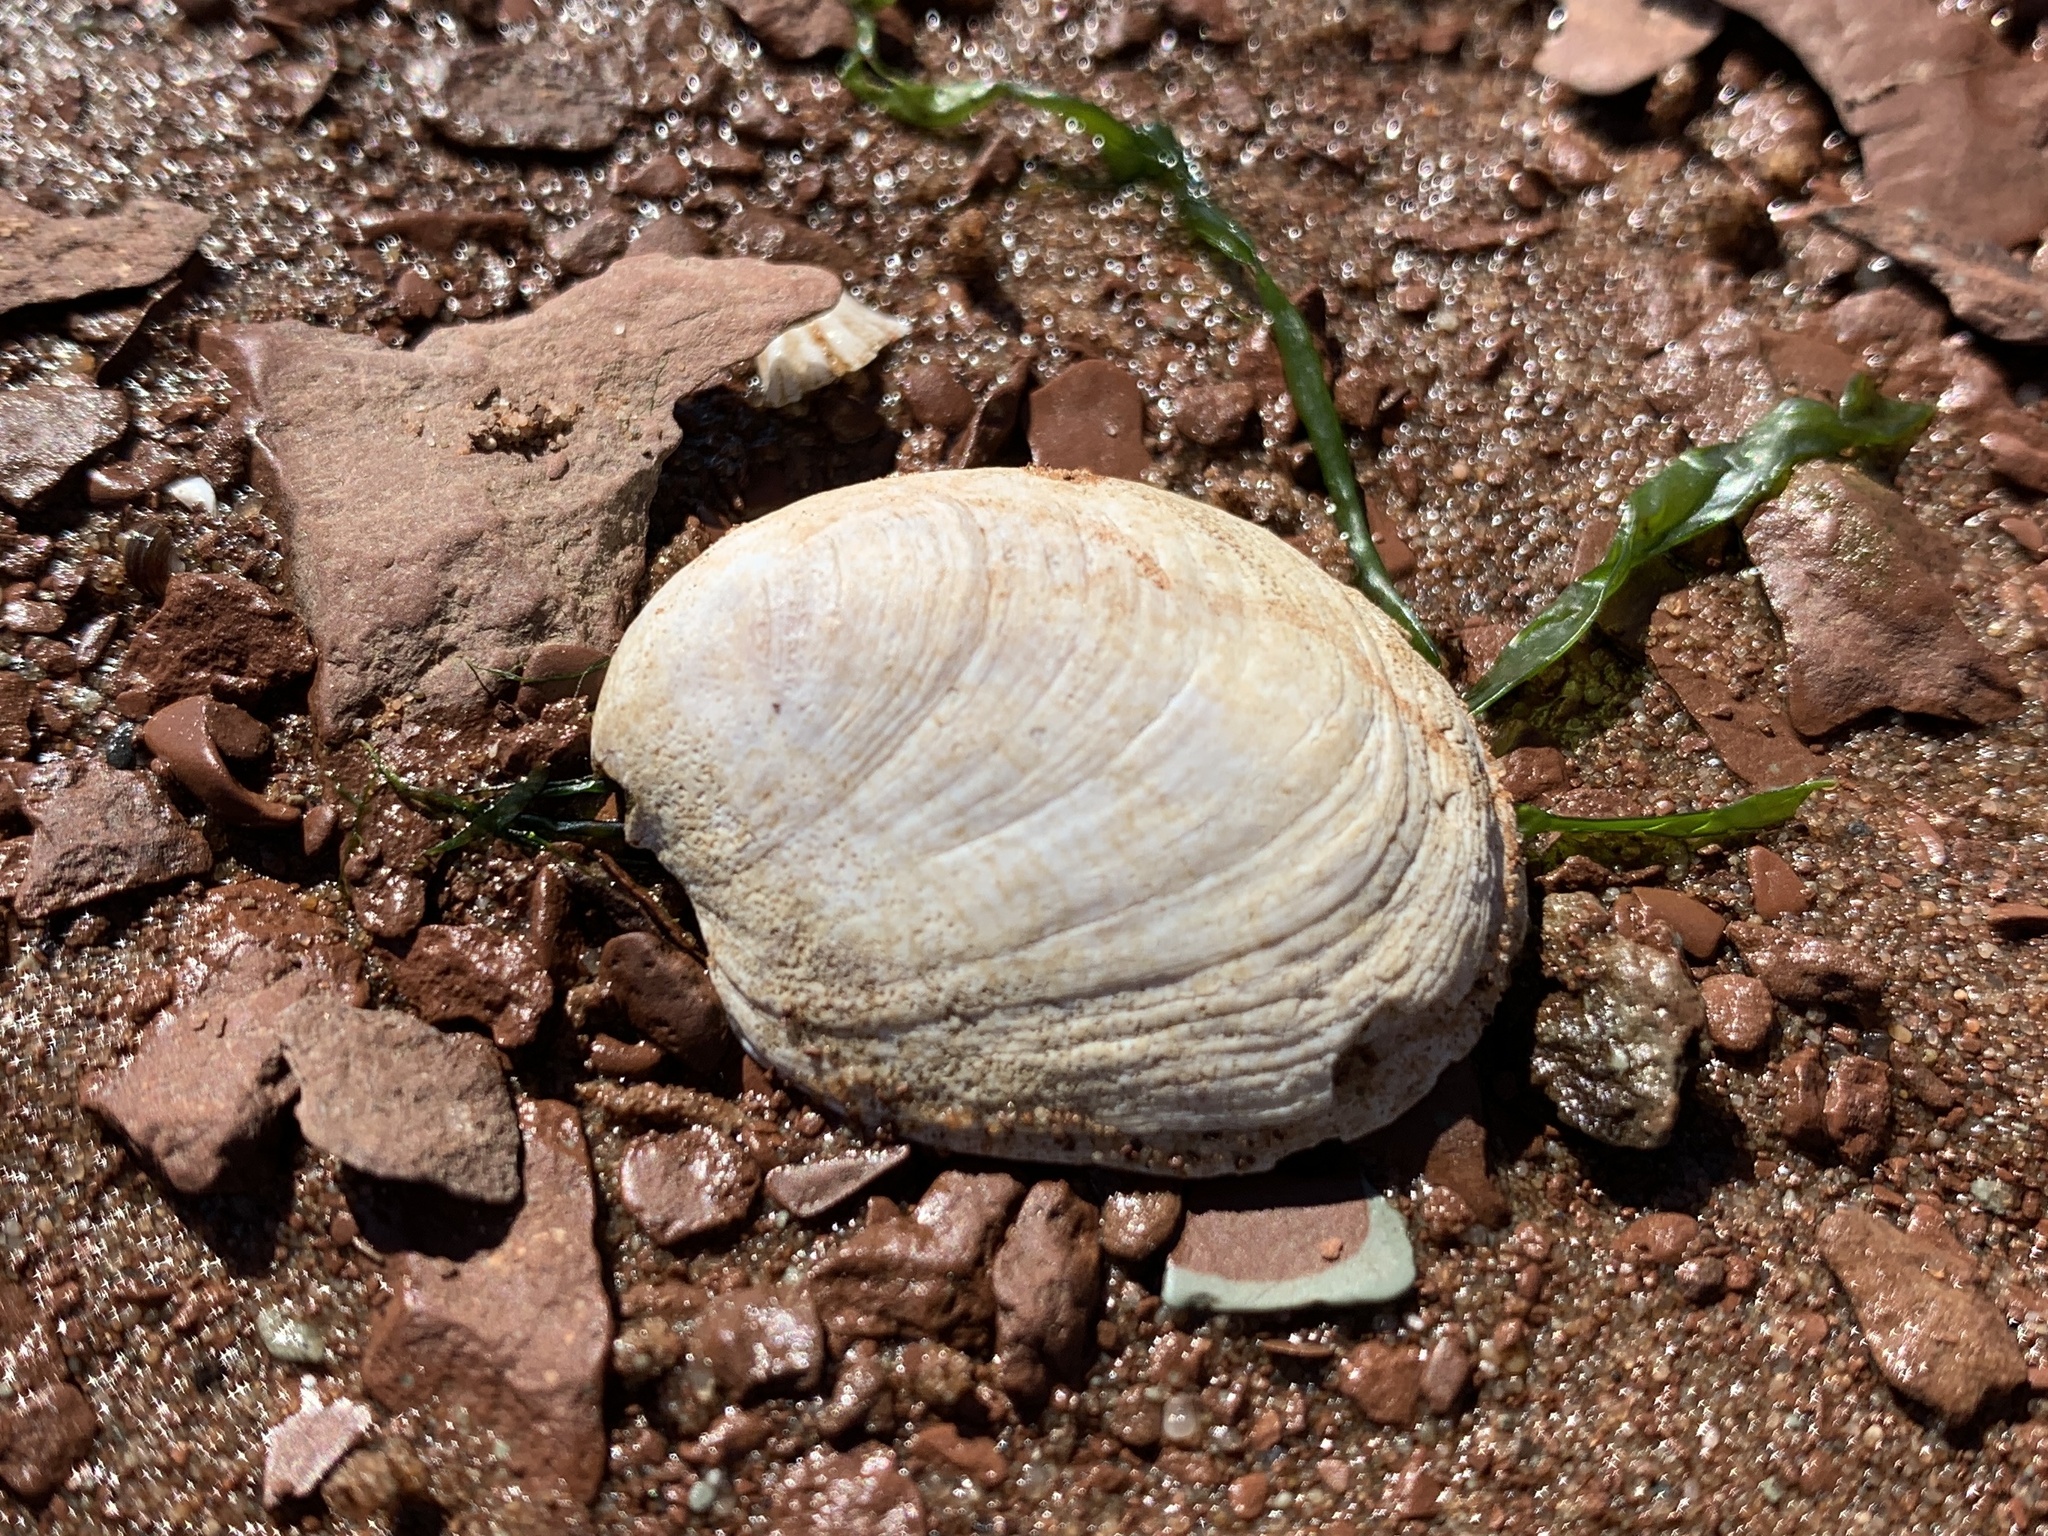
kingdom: Animalia
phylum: Mollusca
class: Gastropoda
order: Littorinimorpha
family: Calyptraeidae
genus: Crepidula
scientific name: Crepidula fornicata
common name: Slipper limpet
